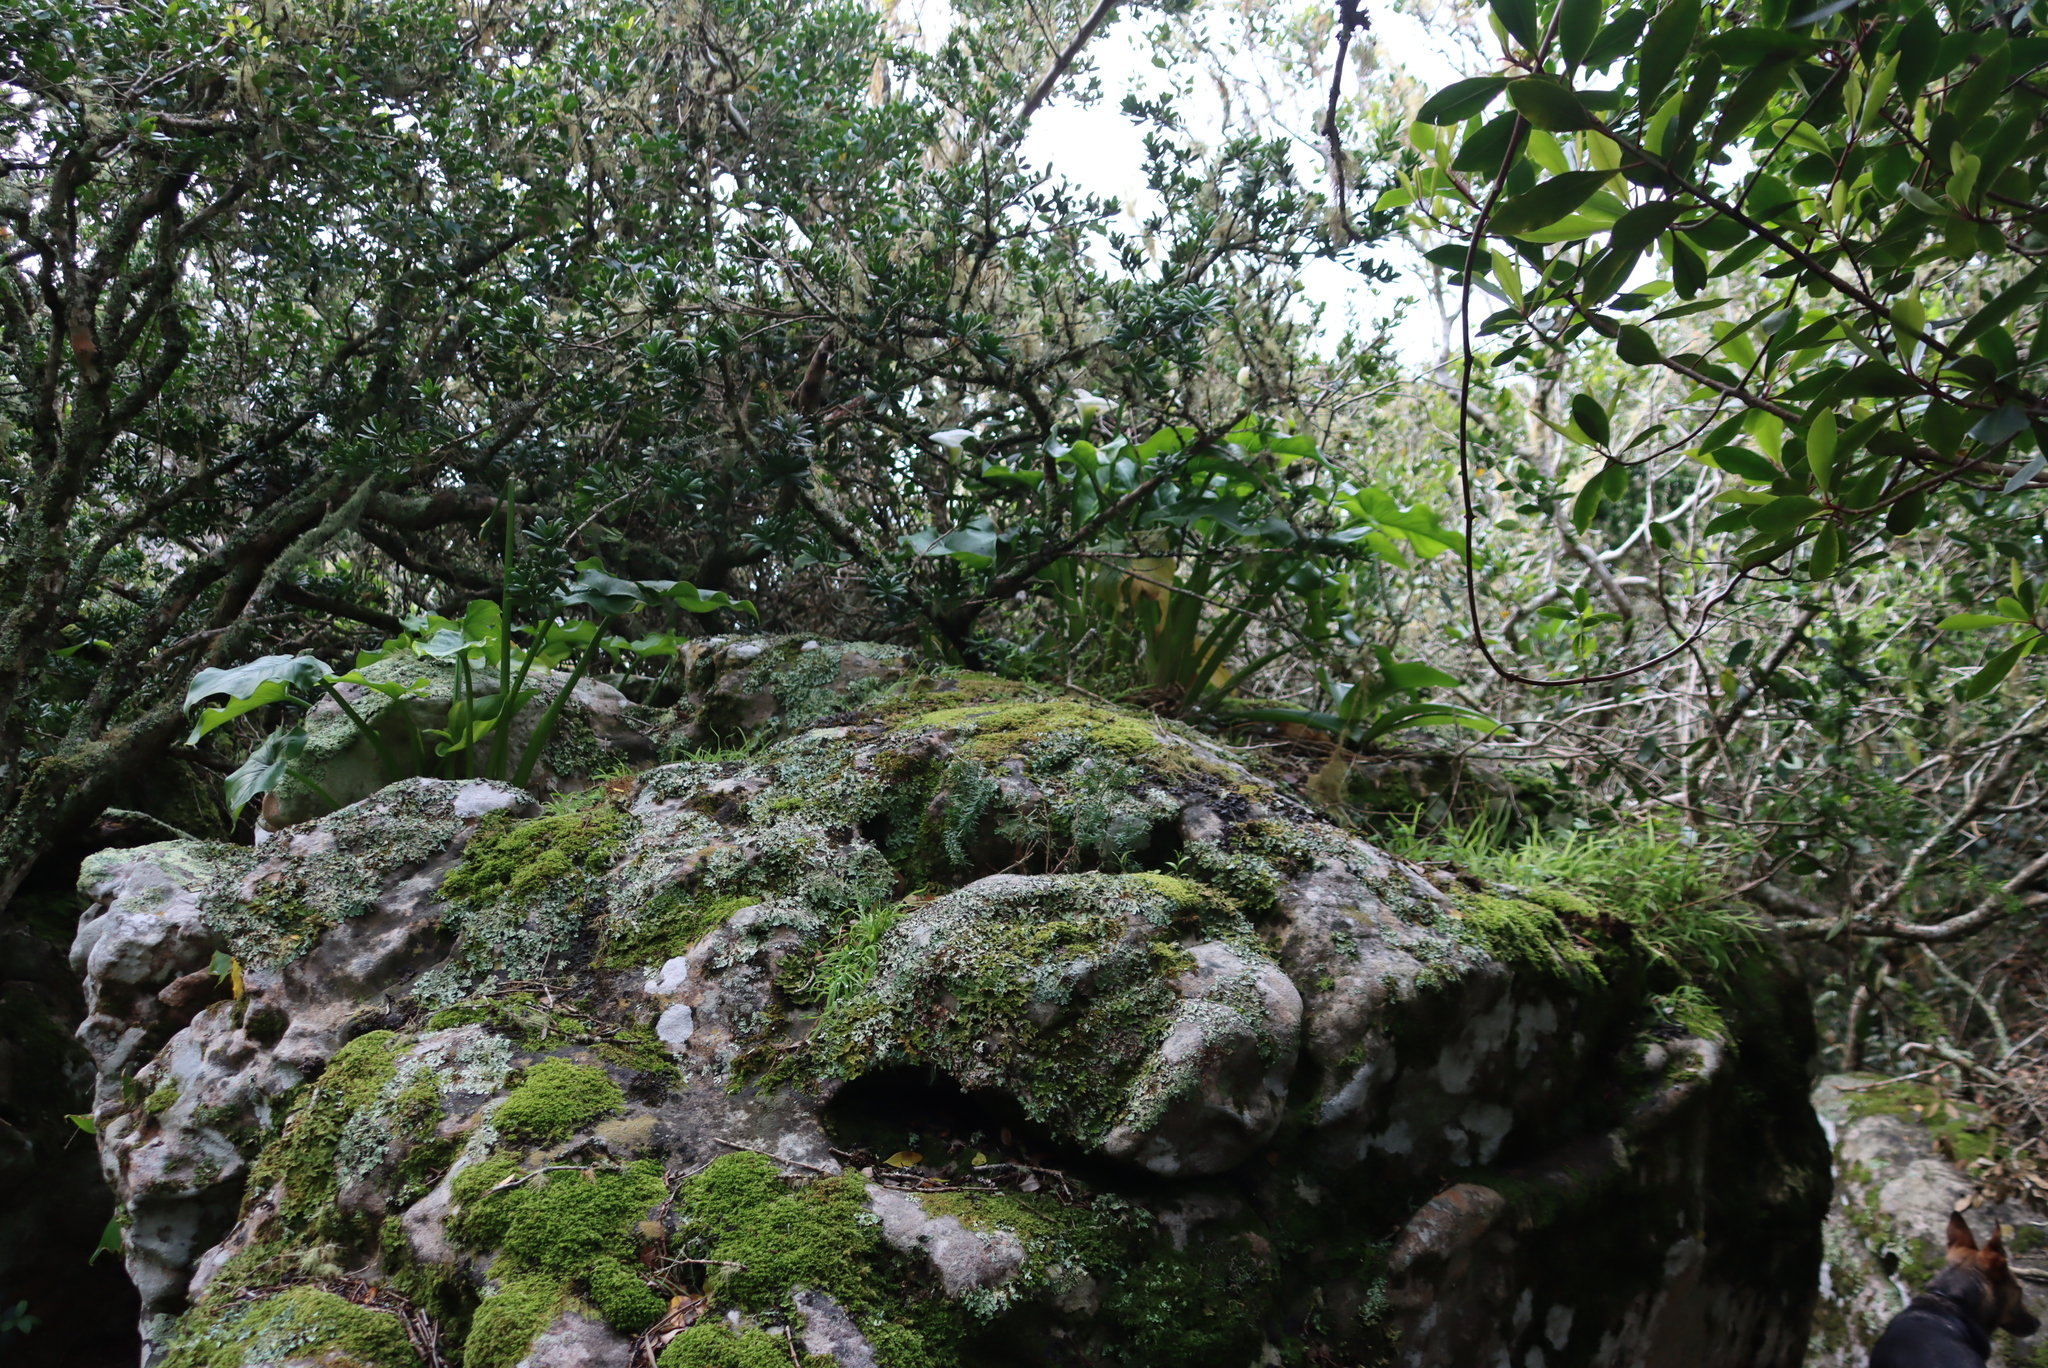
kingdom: Plantae
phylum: Tracheophyta
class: Pinopsida
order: Pinales
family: Podocarpaceae
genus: Podocarpus
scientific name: Podocarpus latifolius
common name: True yellowwood
